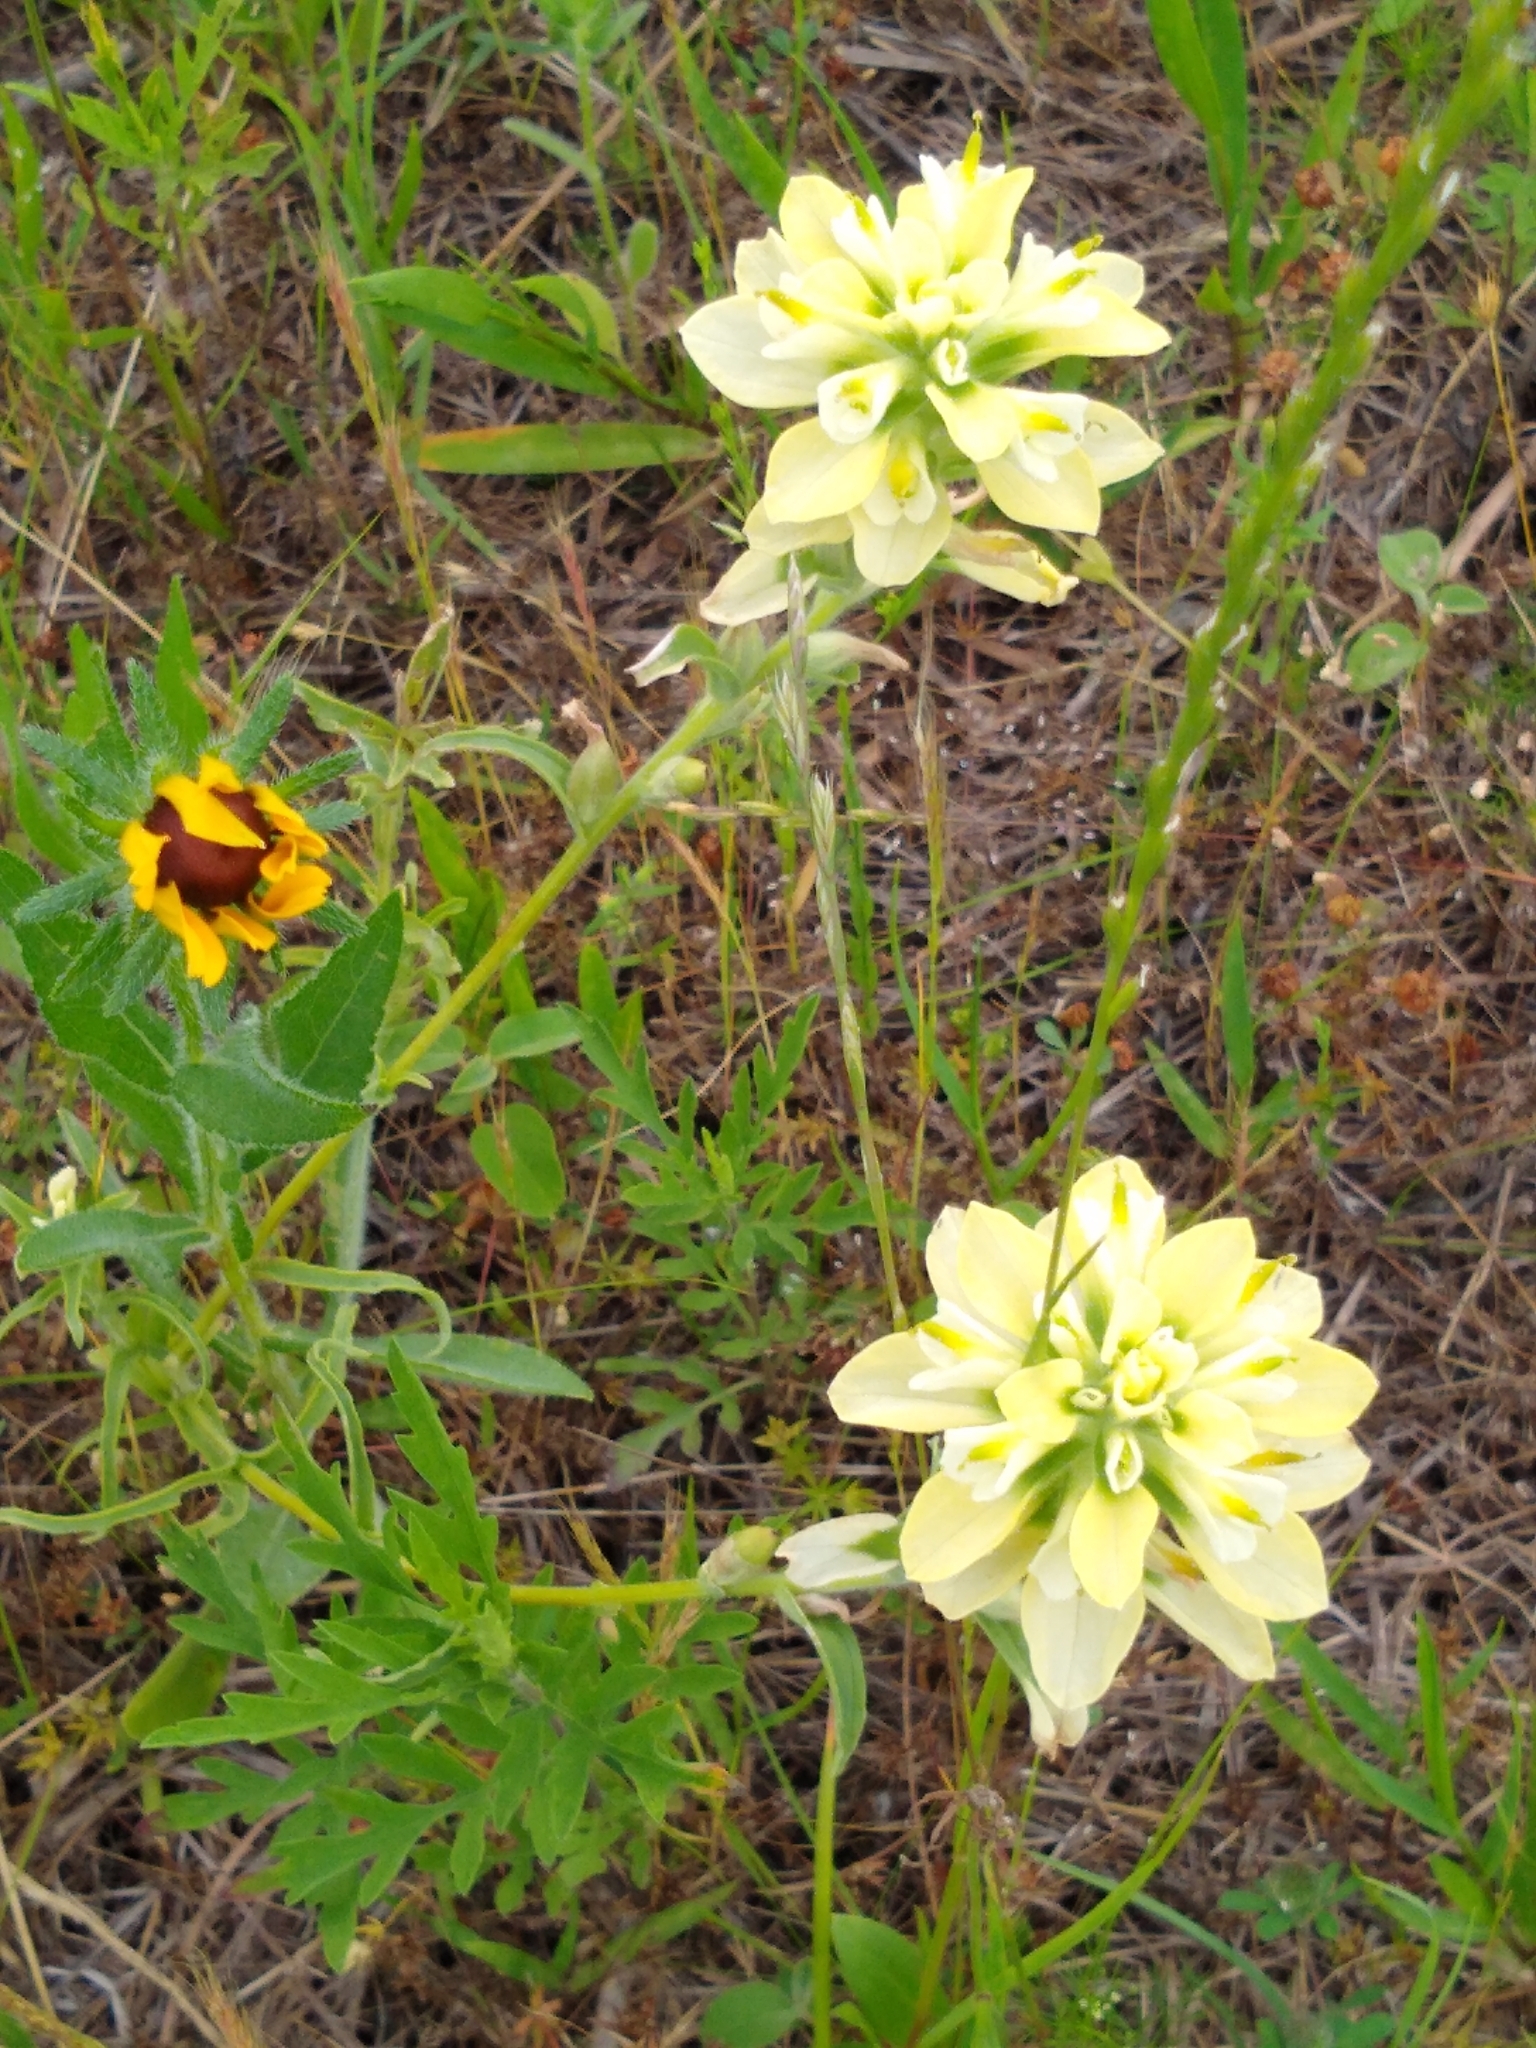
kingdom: Plantae
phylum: Tracheophyta
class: Magnoliopsida
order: Lamiales
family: Orobanchaceae
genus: Castilleja
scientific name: Castilleja indivisa
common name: Texas paintbrush
